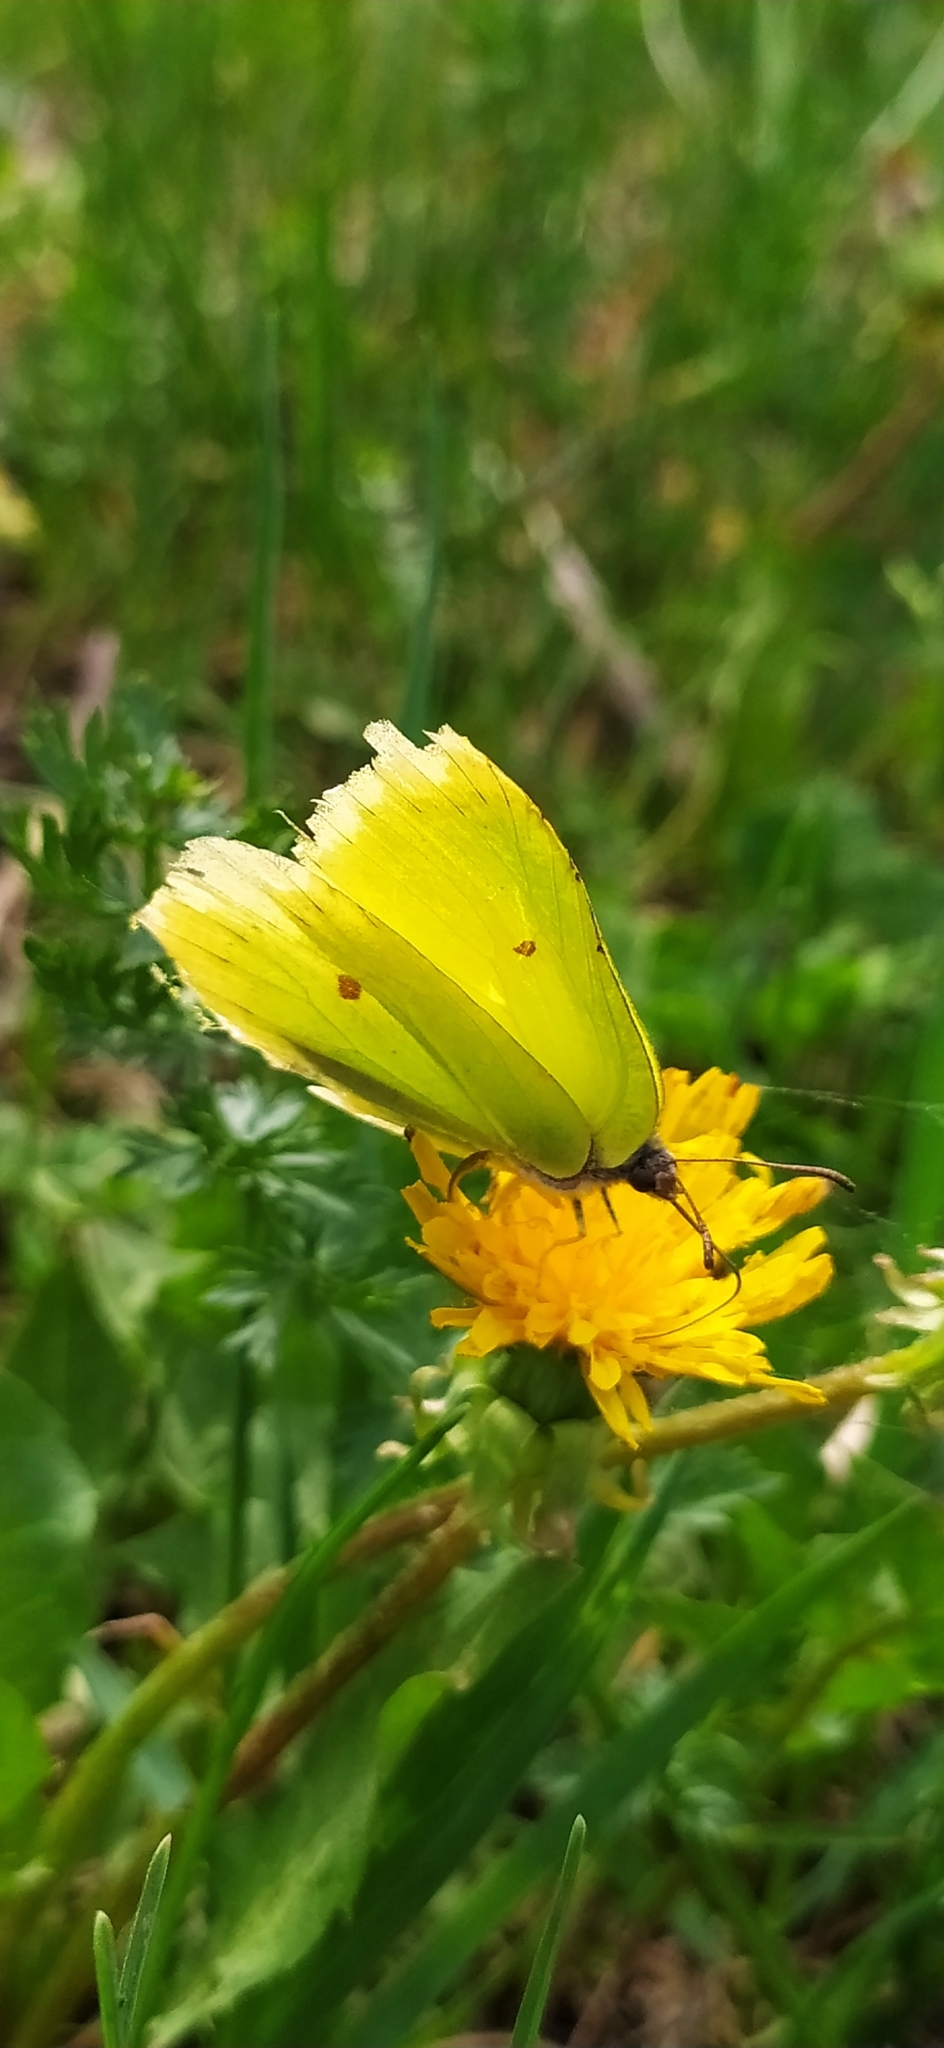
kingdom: Animalia
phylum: Arthropoda
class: Insecta
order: Lepidoptera
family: Pieridae
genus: Gonepteryx
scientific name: Gonepteryx rhamni
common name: Brimstone
